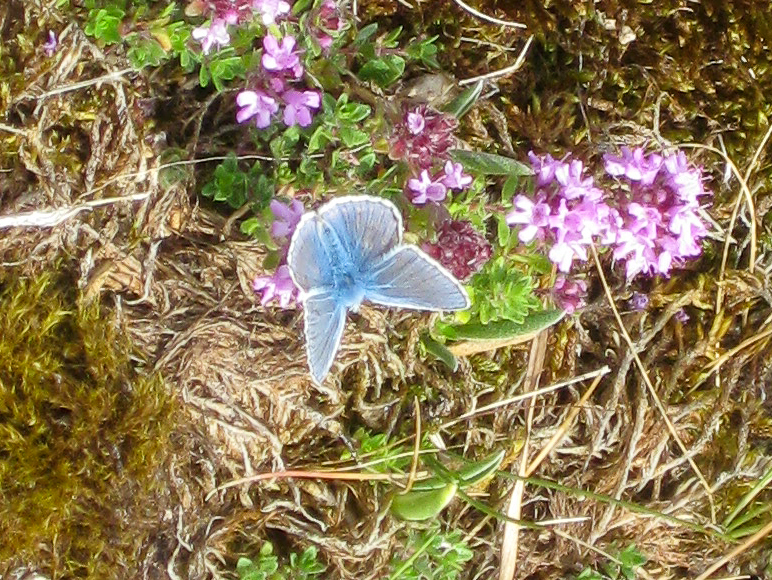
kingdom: Animalia
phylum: Arthropoda
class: Insecta
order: Lepidoptera
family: Lycaenidae
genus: Polyommatus
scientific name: Polyommatus icarus
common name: Common blue
